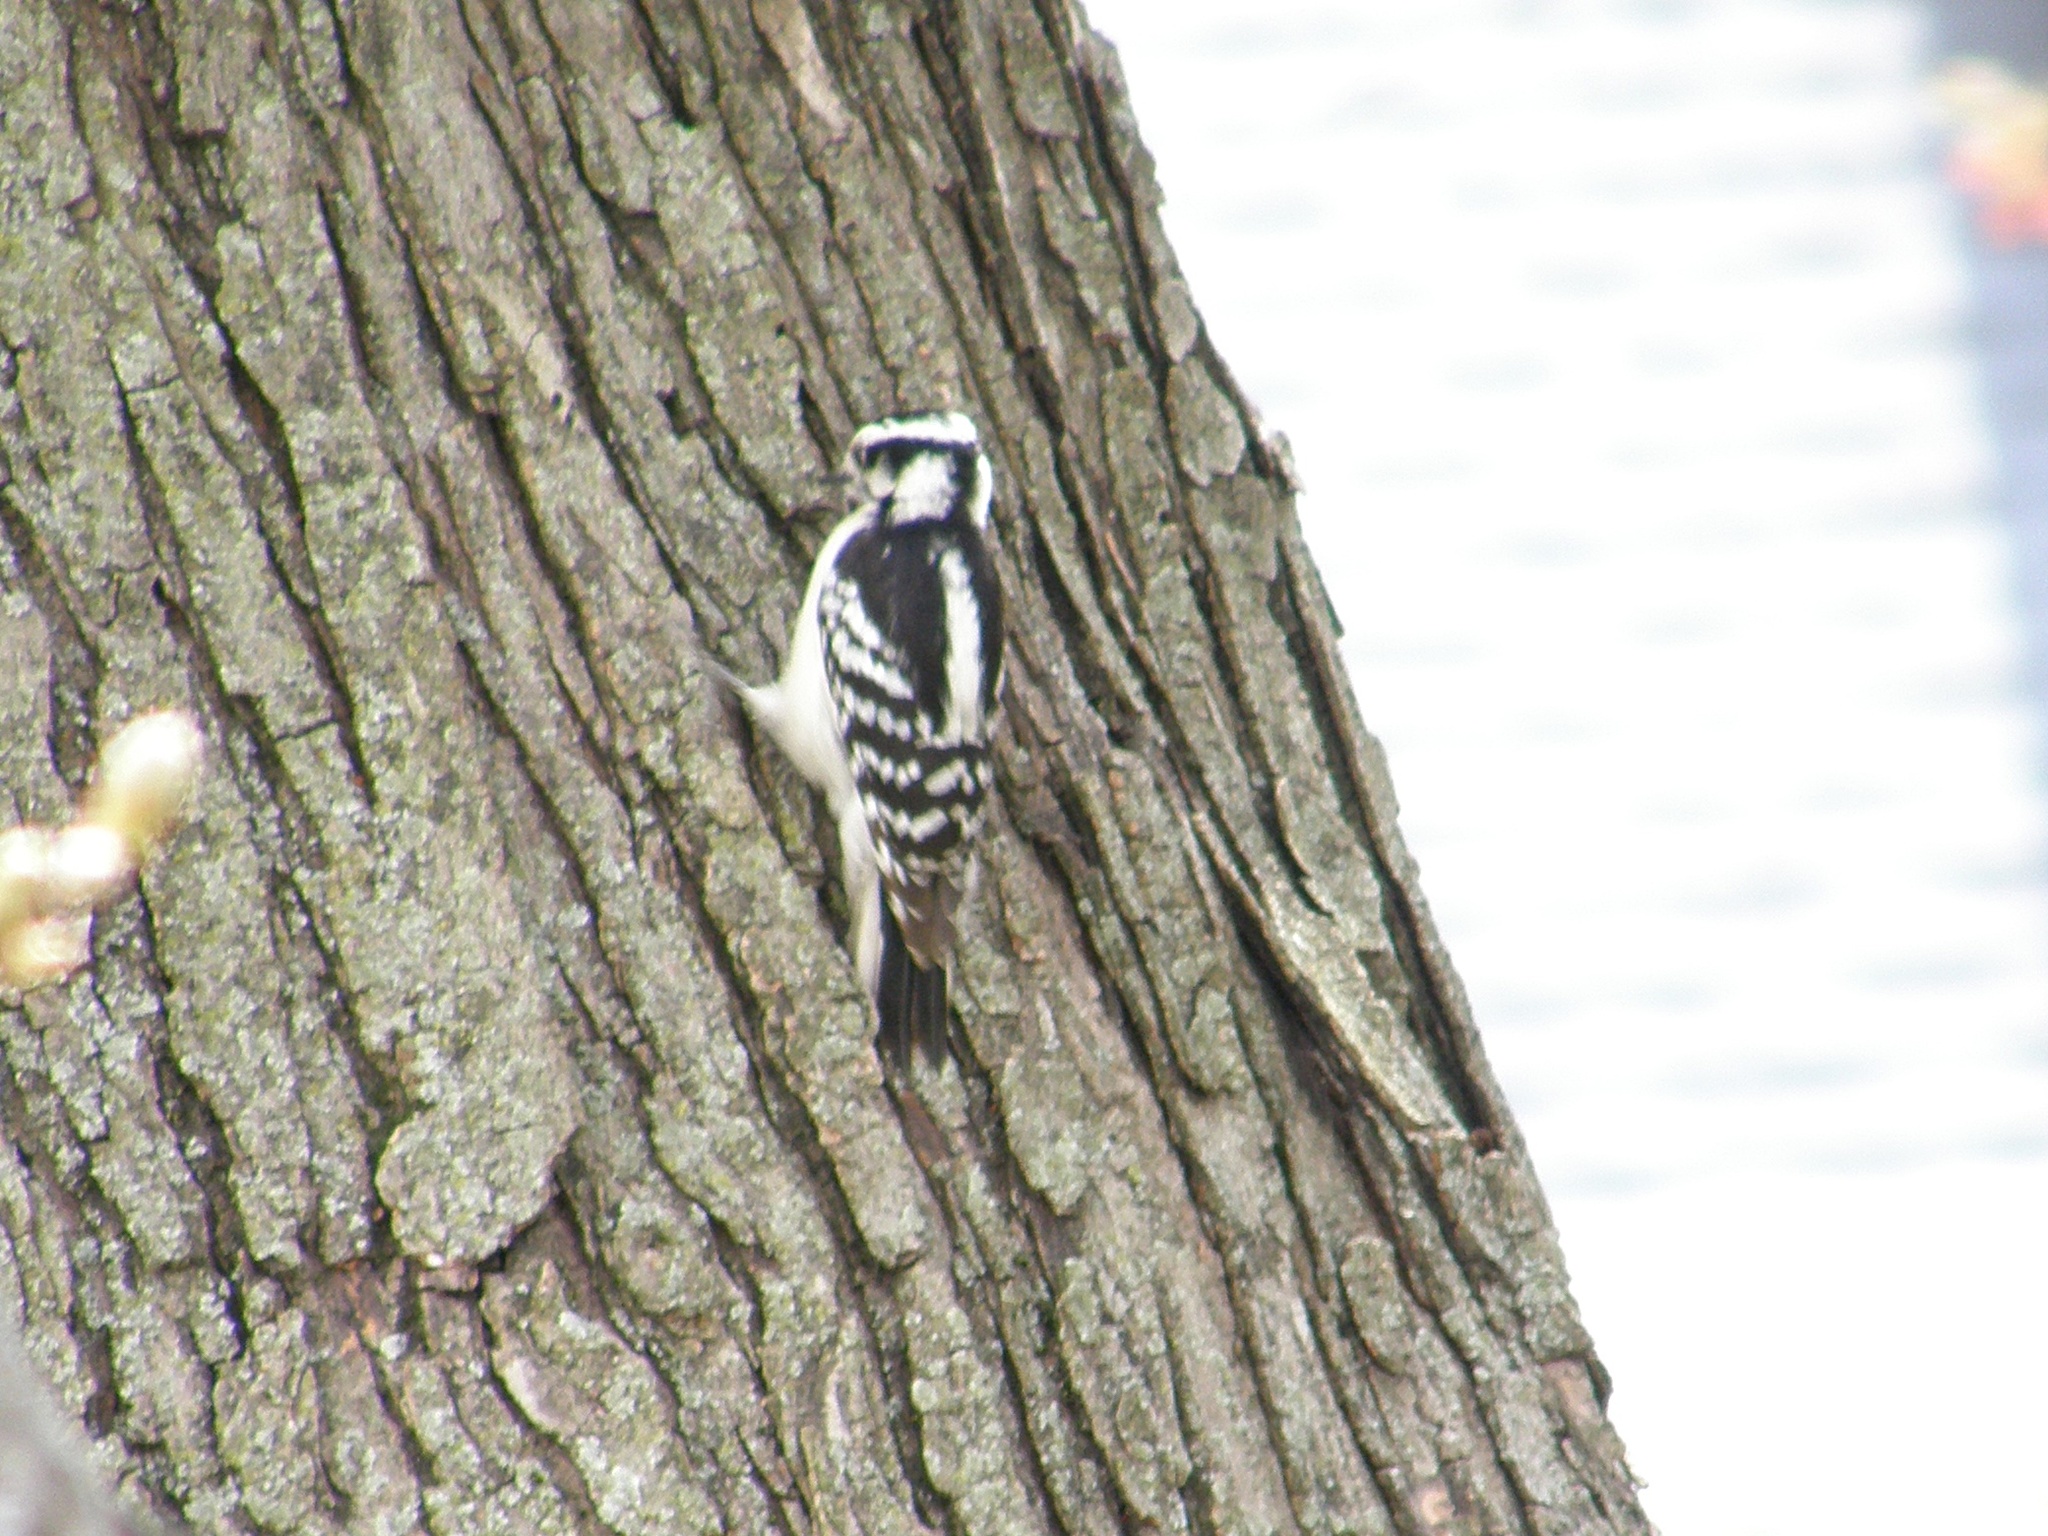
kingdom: Animalia
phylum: Chordata
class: Aves
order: Piciformes
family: Picidae
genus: Dryobates
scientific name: Dryobates pubescens
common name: Downy woodpecker
